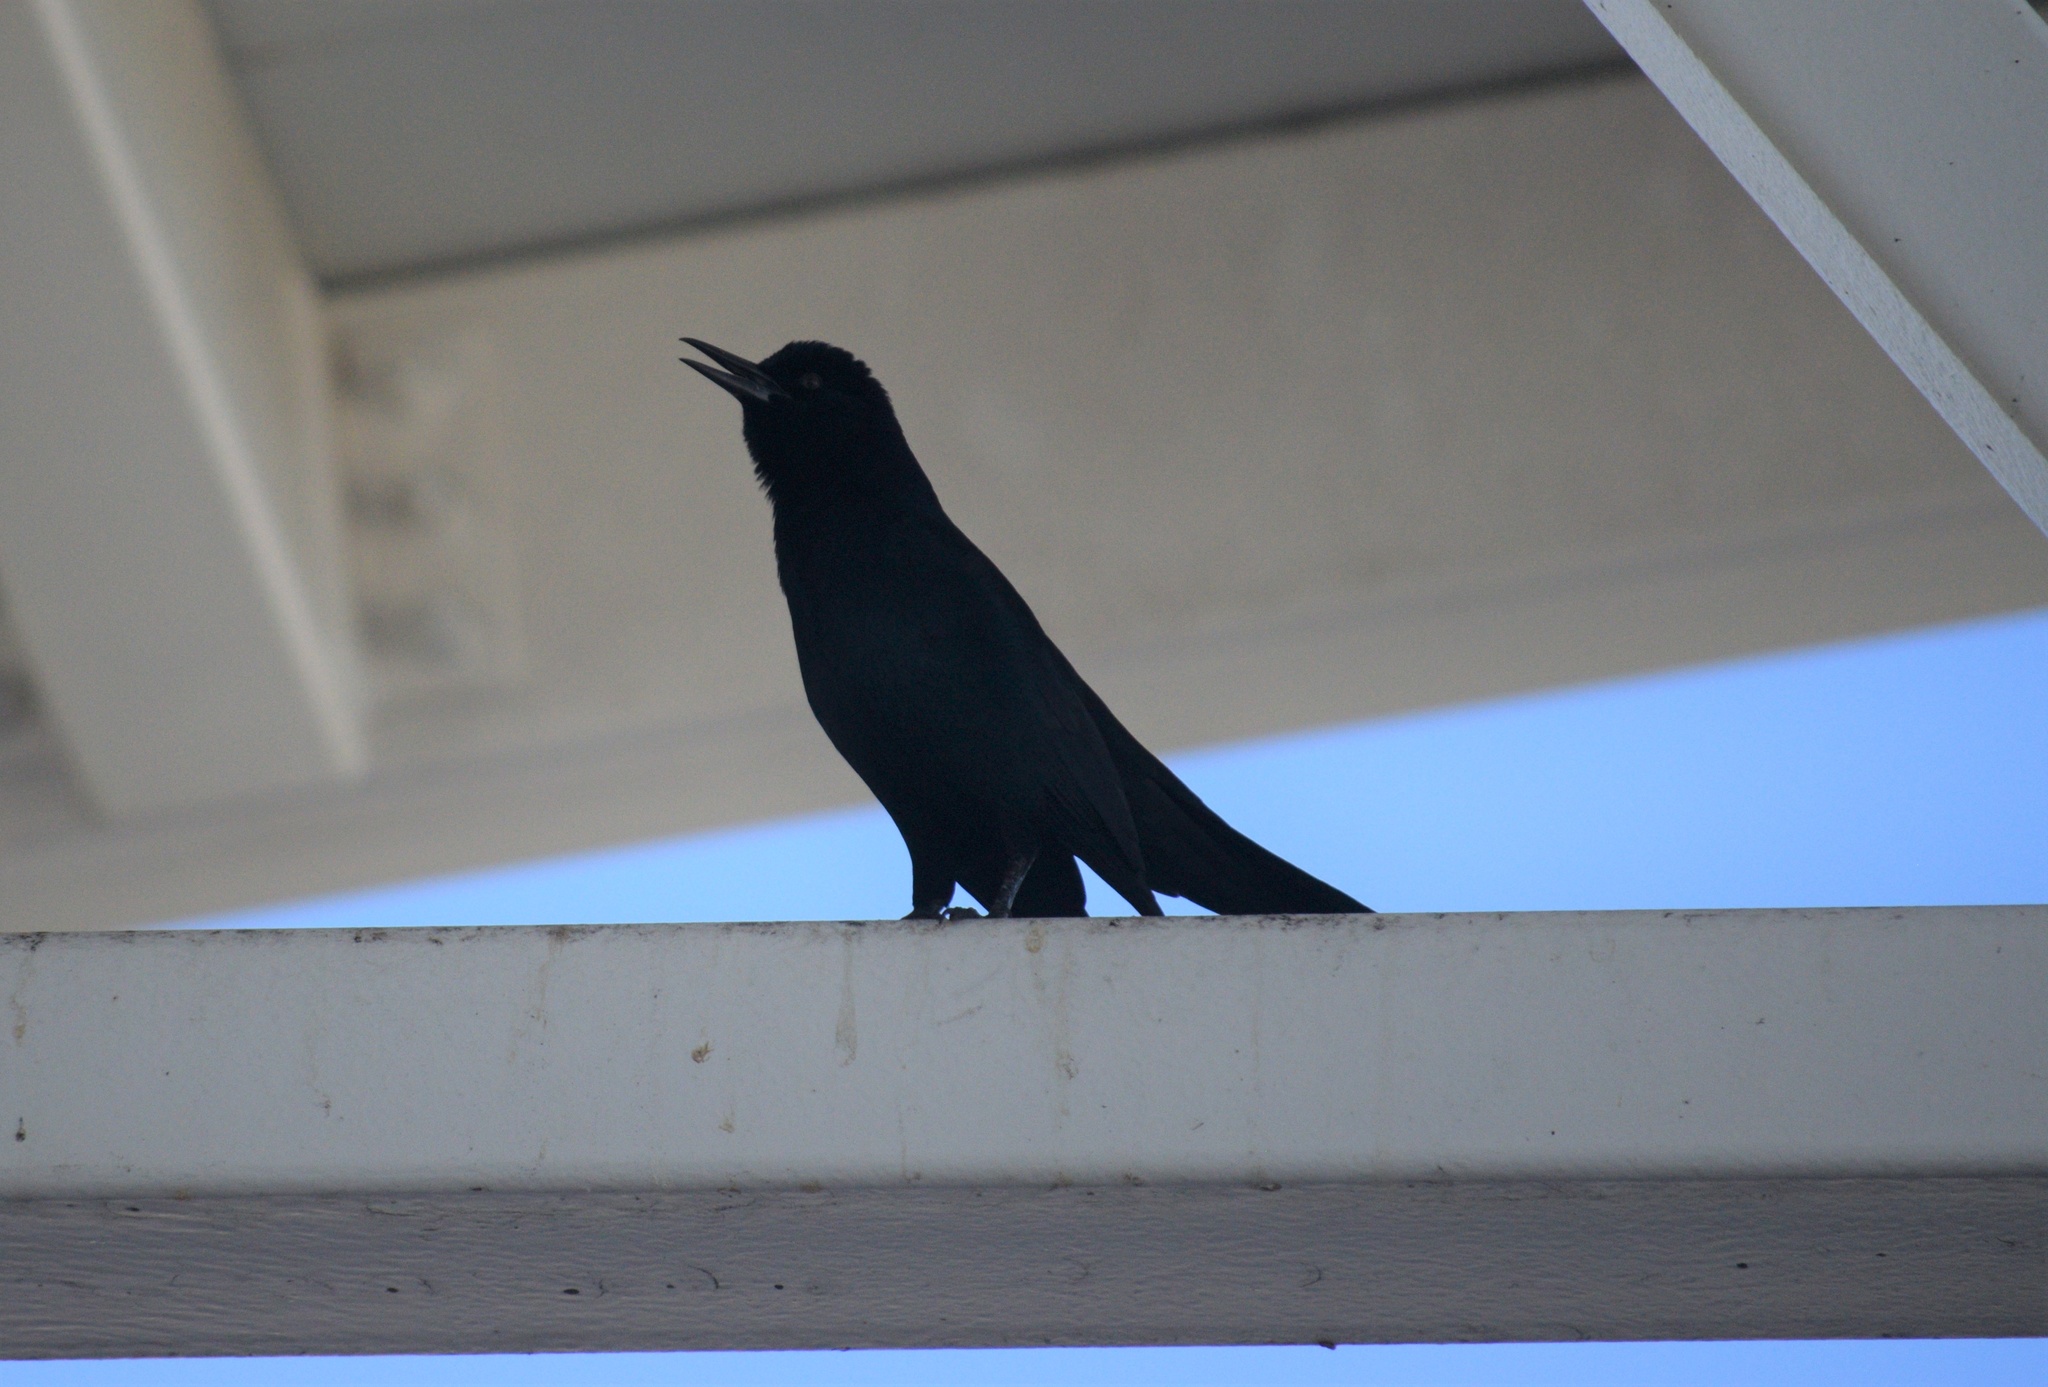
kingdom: Animalia
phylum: Chordata
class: Aves
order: Passeriformes
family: Icteridae
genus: Quiscalus
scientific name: Quiscalus major
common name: Boat-tailed grackle
